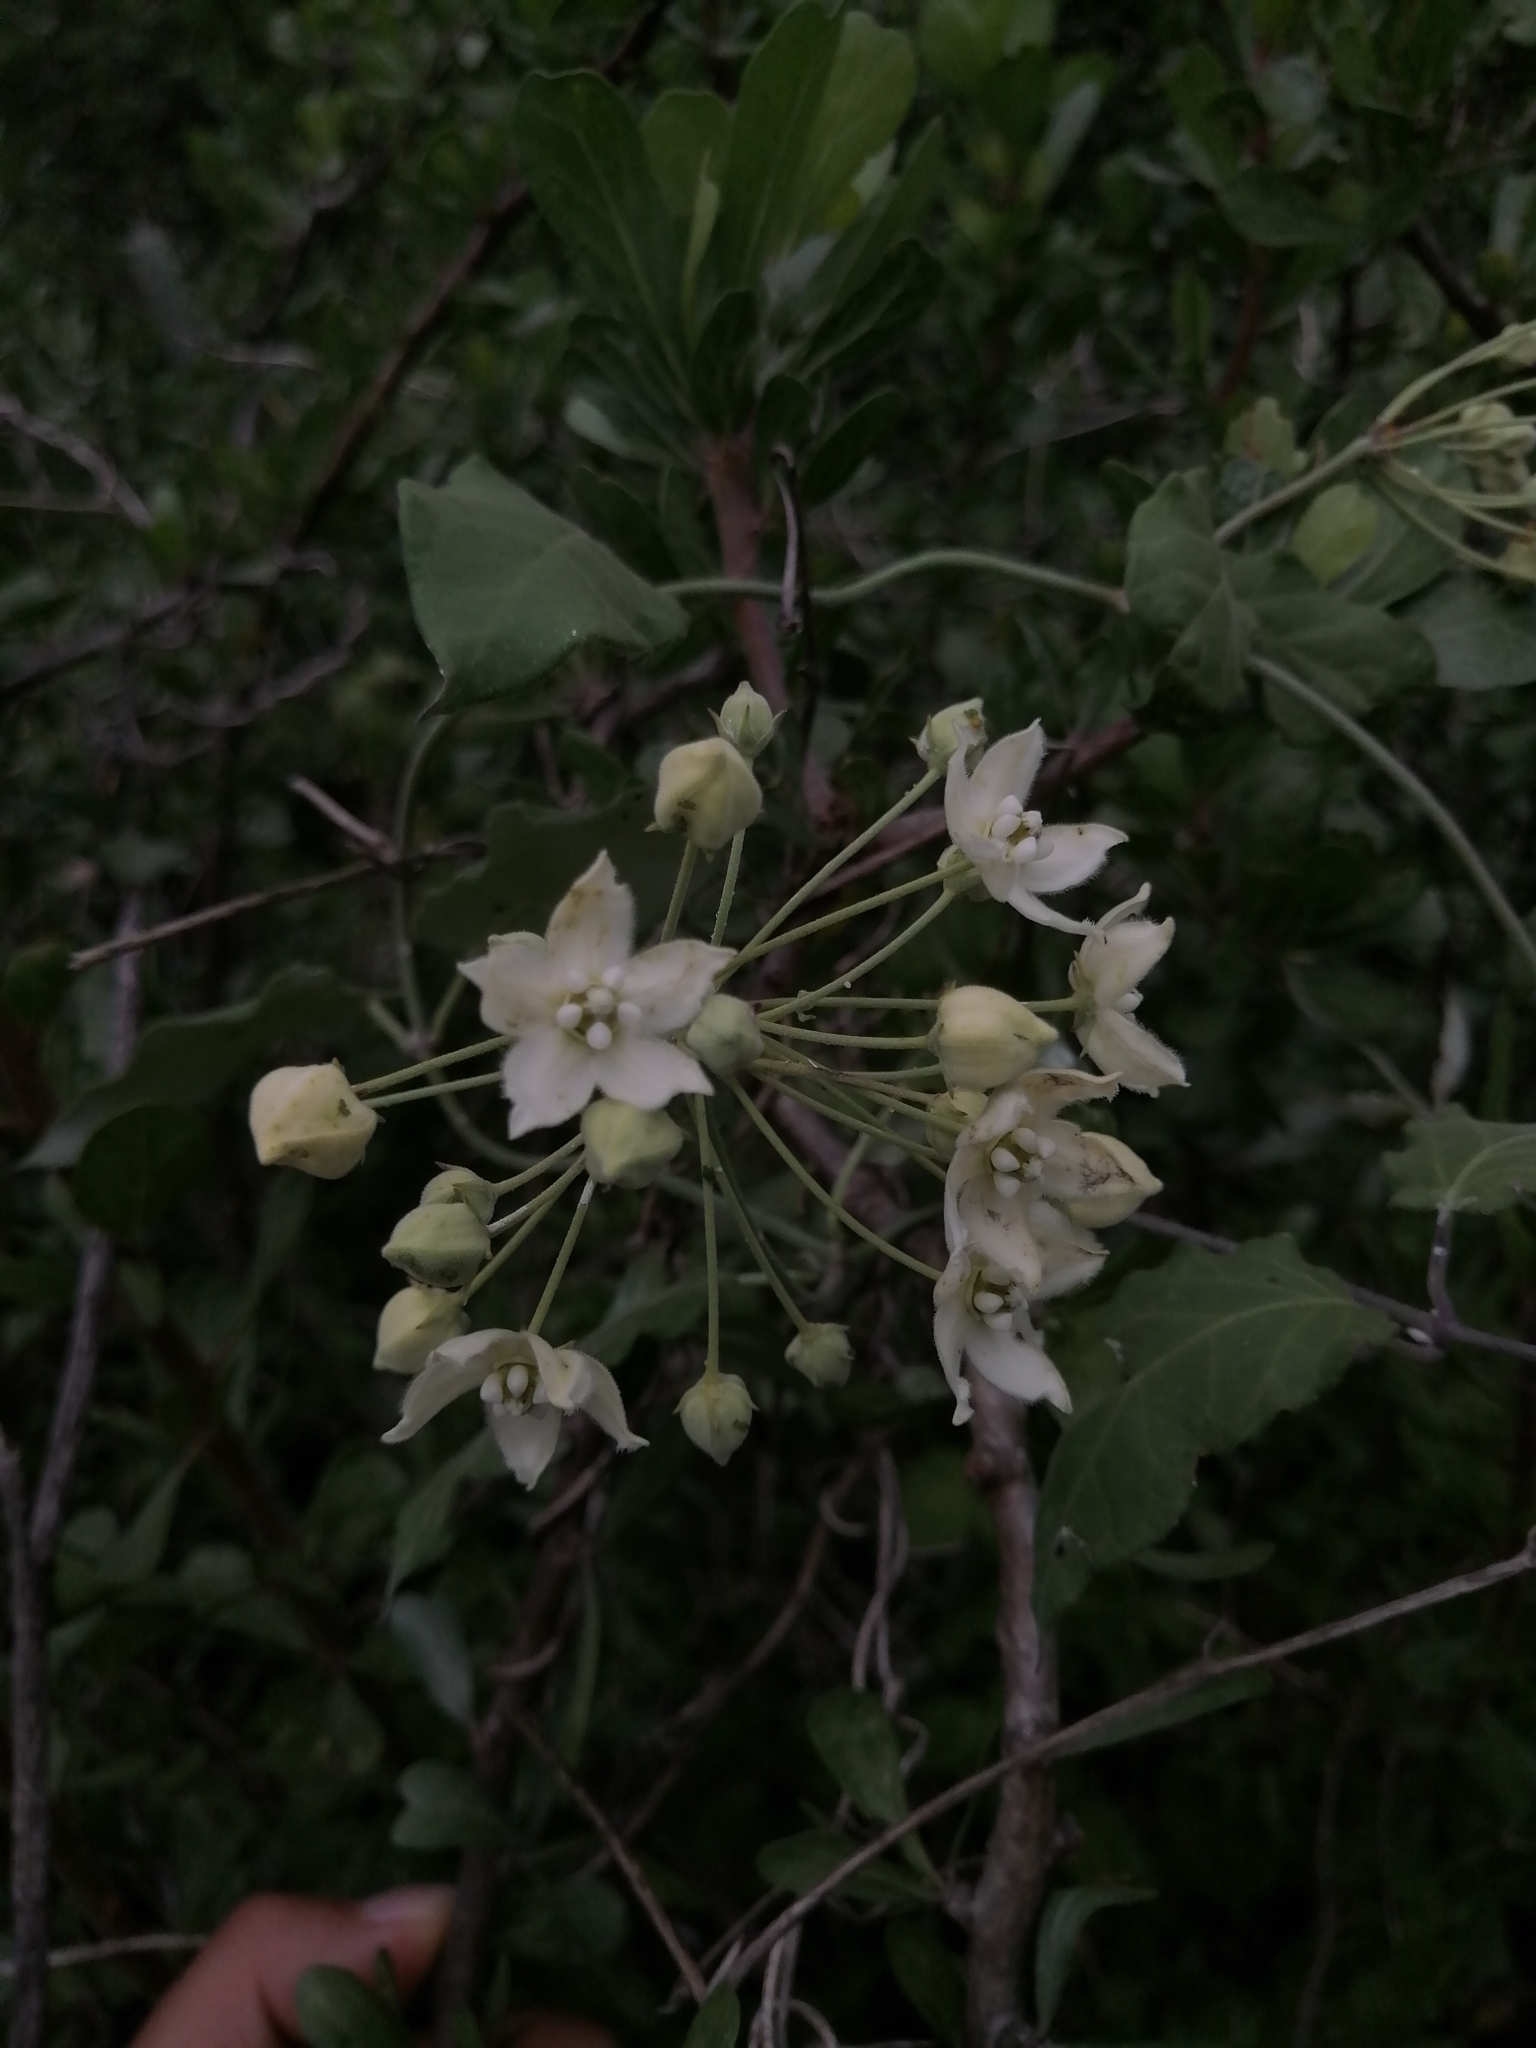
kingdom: Plantae
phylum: Tracheophyta
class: Magnoliopsida
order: Gentianales
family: Apocynaceae
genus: Funastrum
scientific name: Funastrum pannosum
